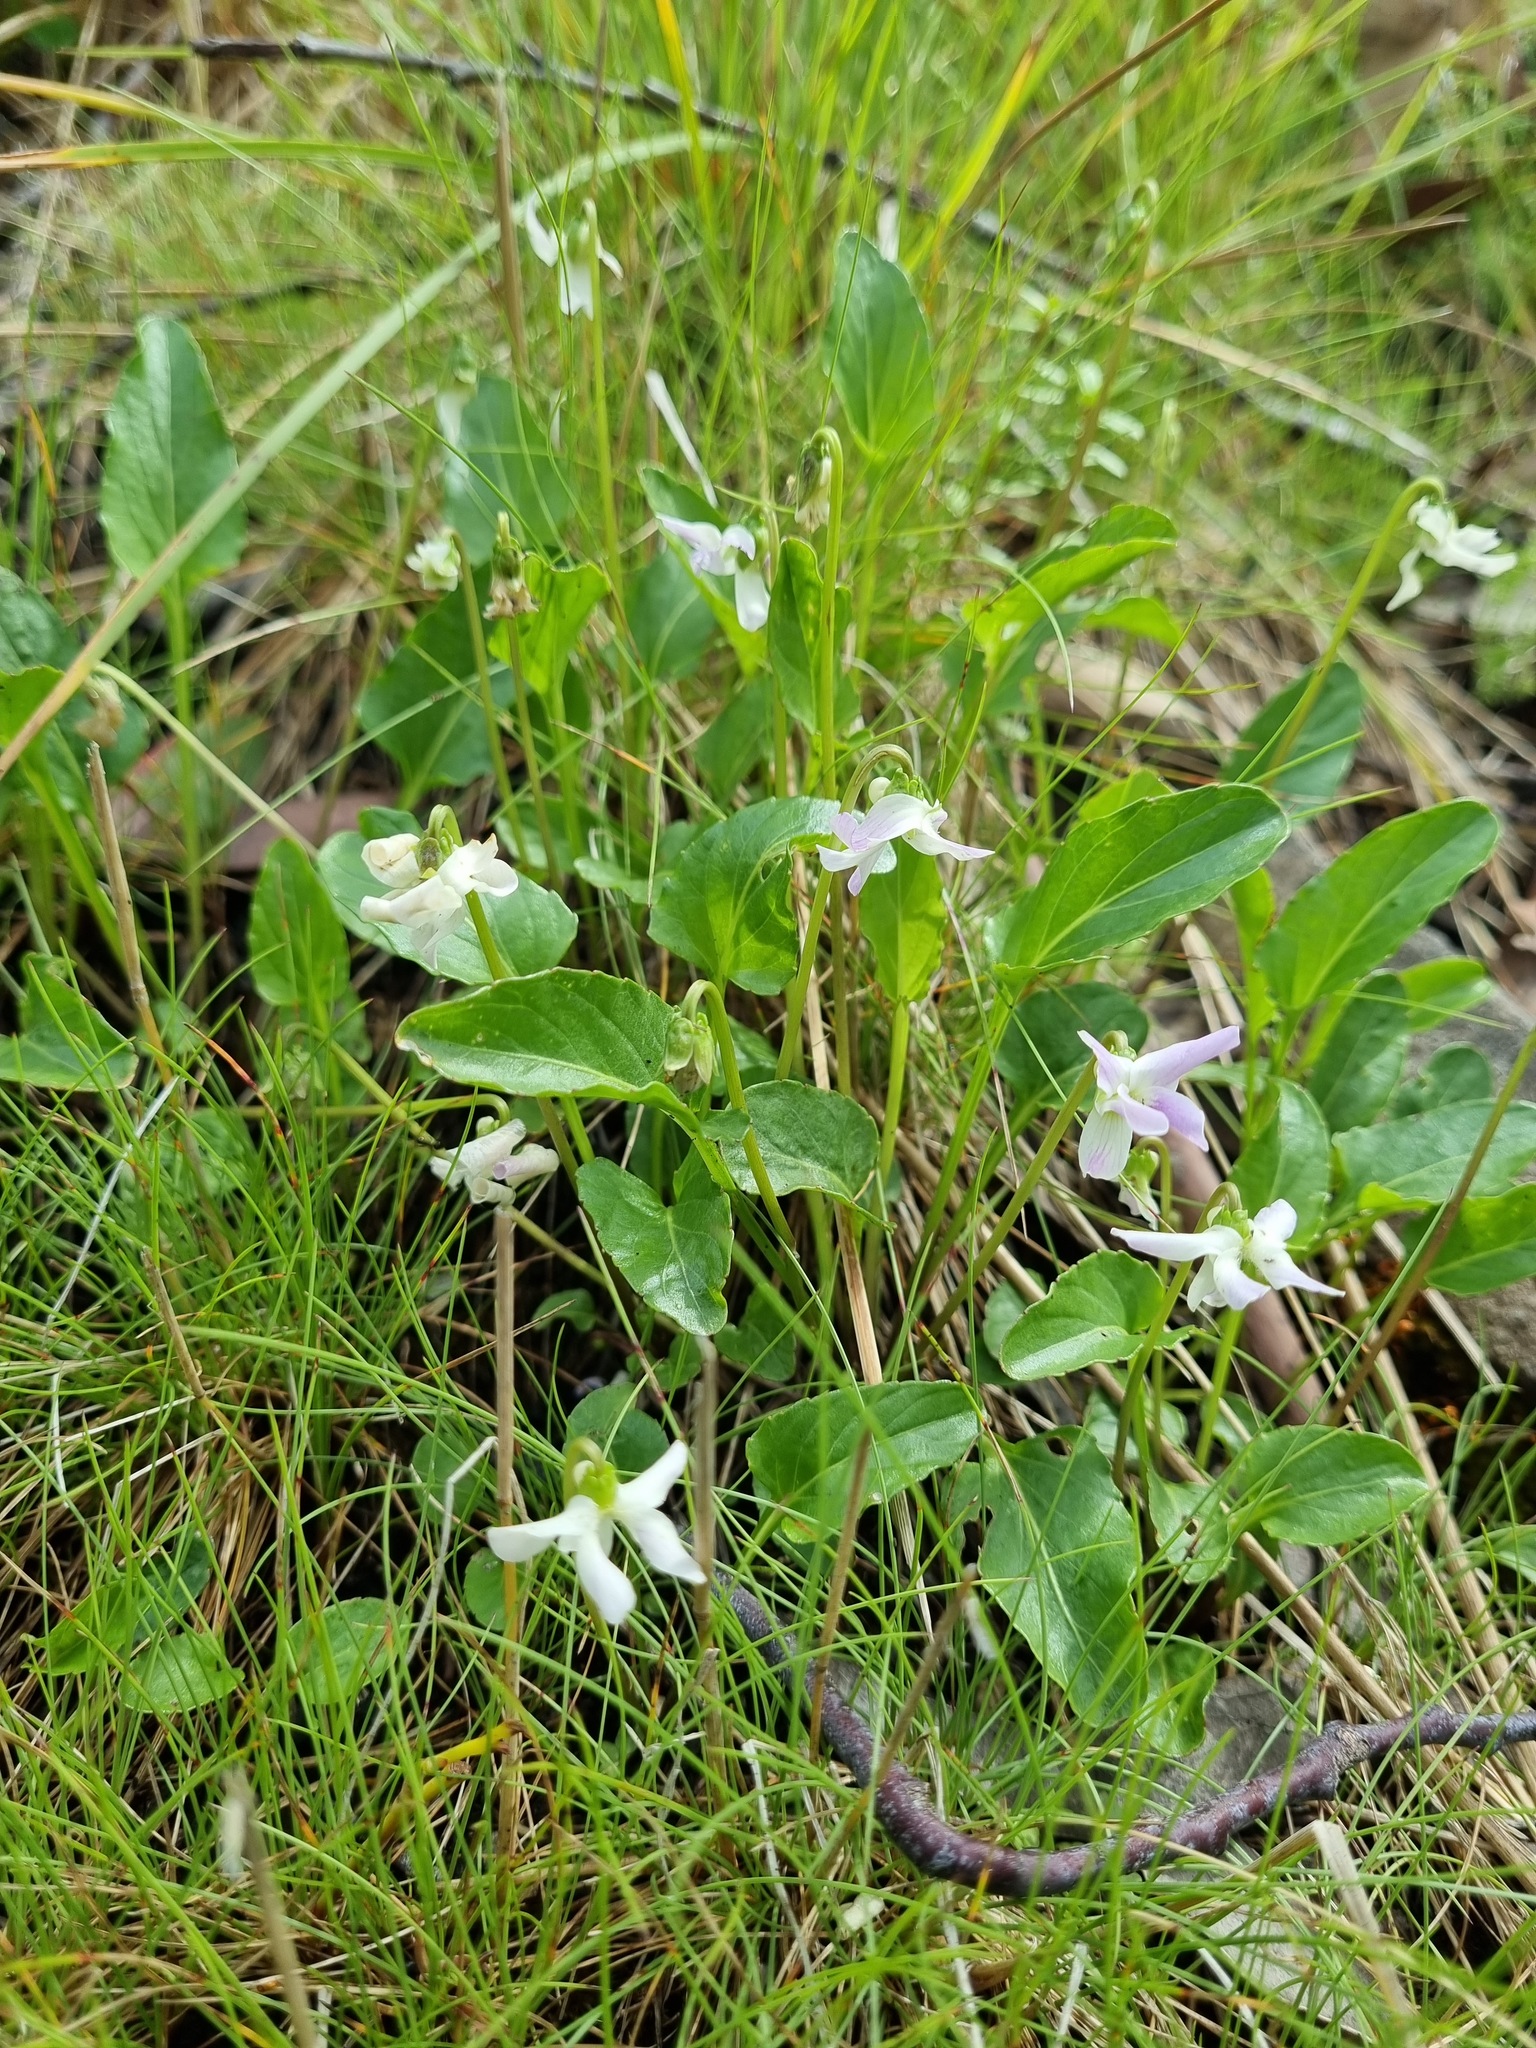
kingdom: Plantae
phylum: Tracheophyta
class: Magnoliopsida
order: Malpighiales
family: Violaceae
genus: Viola
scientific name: Viola betonicifolia
